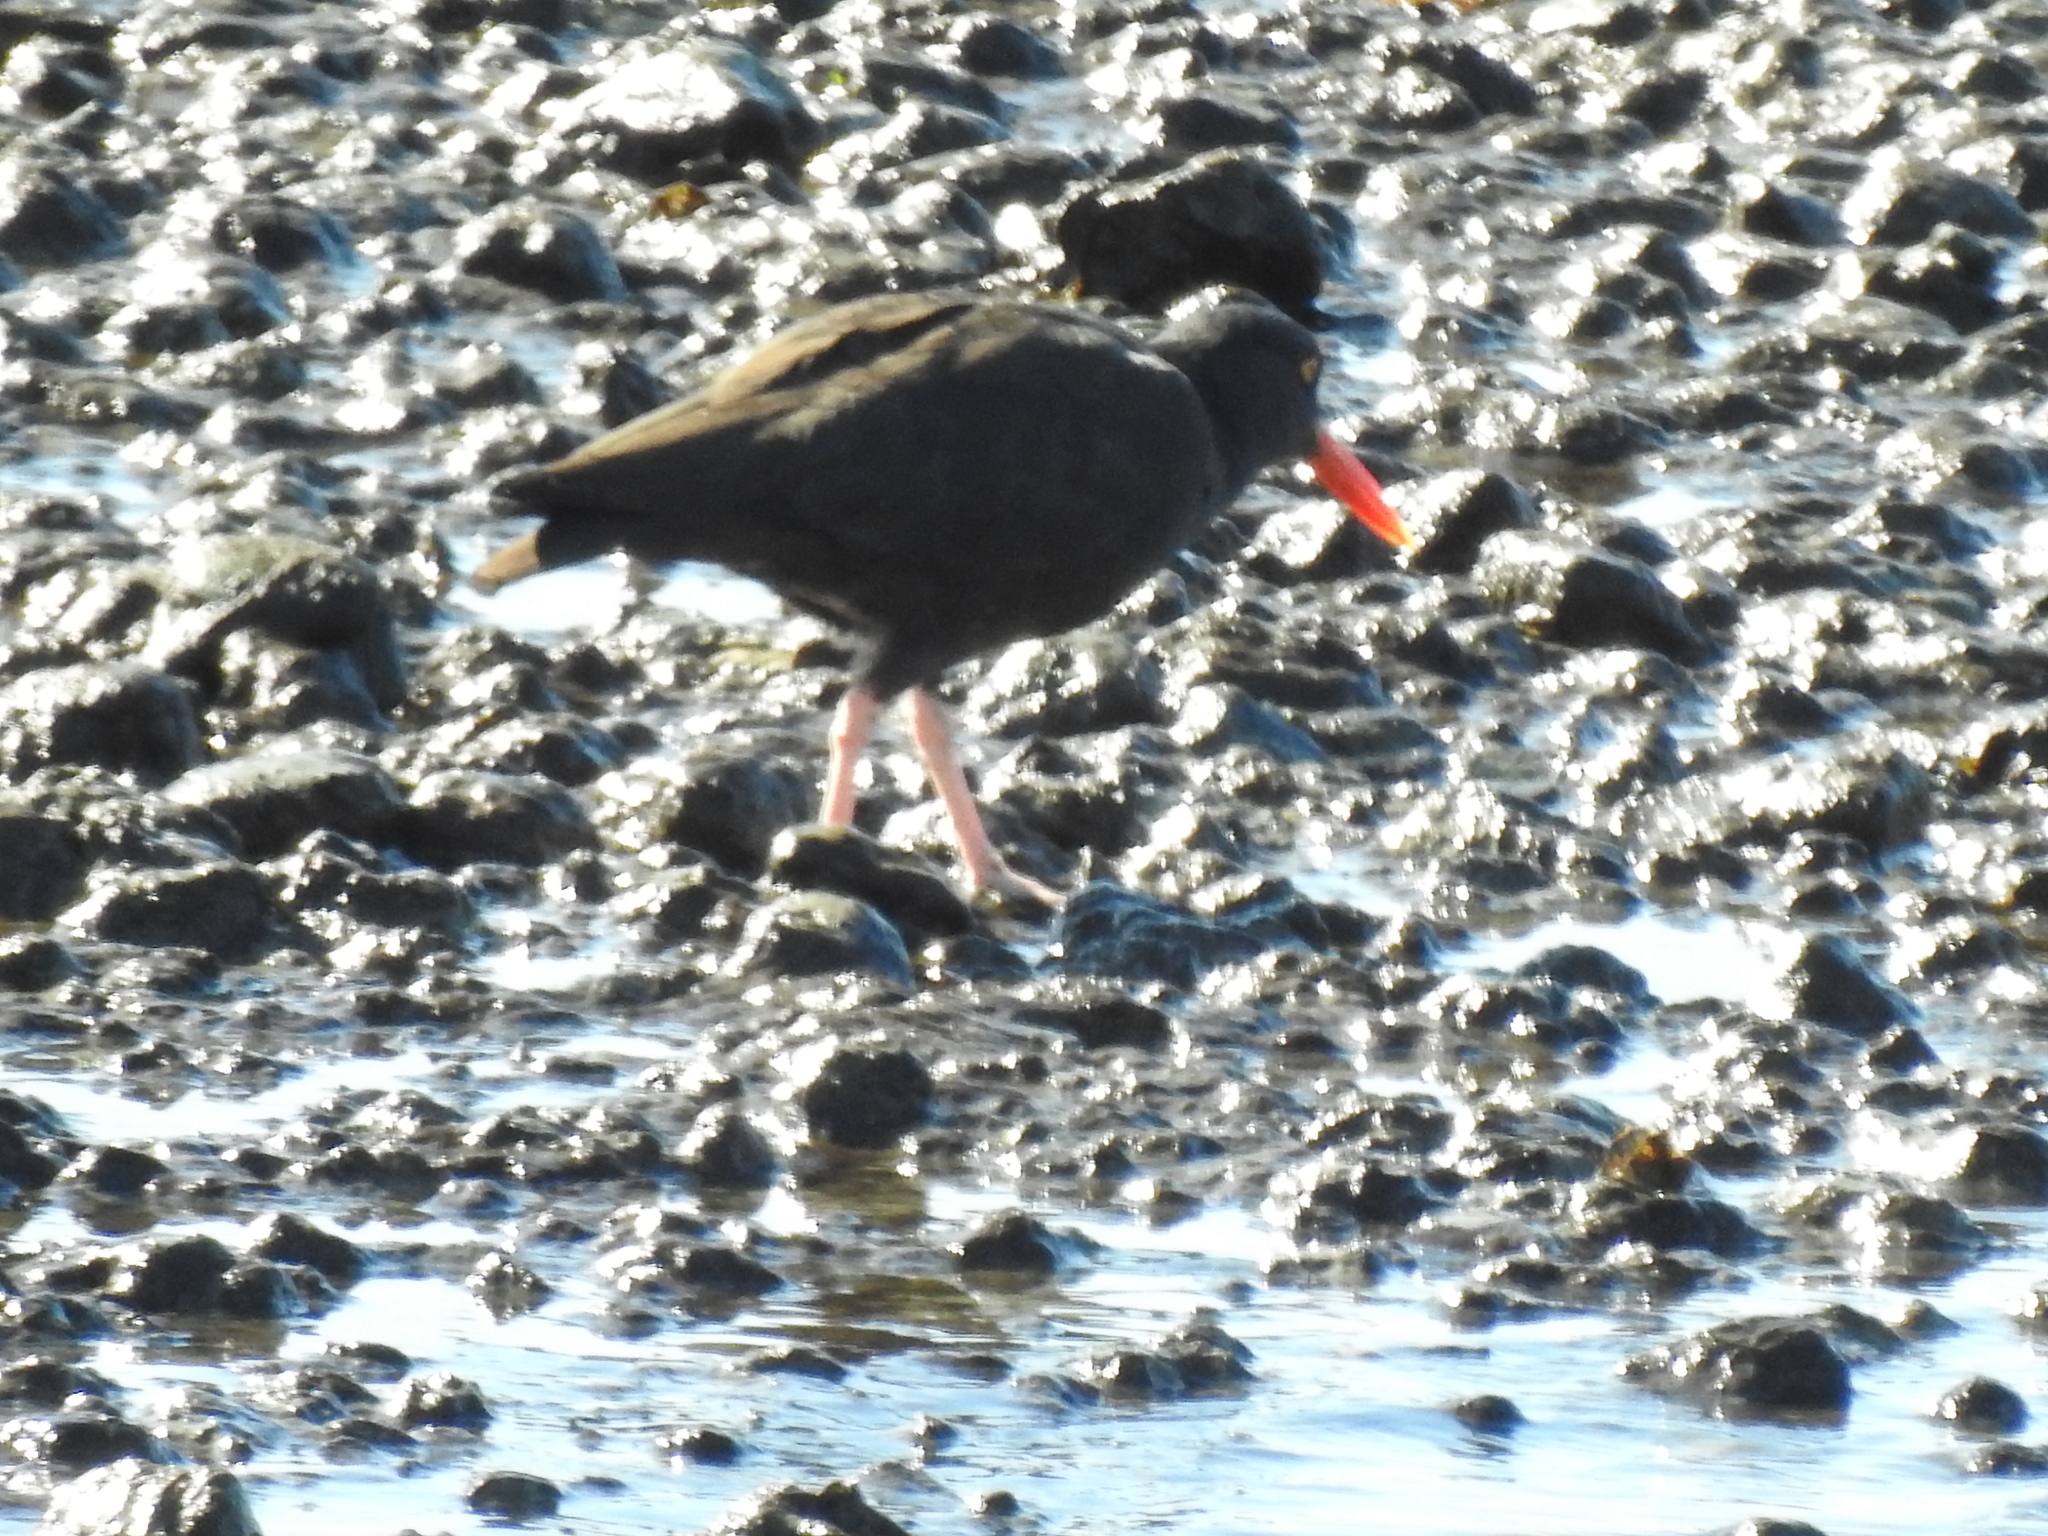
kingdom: Animalia
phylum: Chordata
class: Aves
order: Charadriiformes
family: Haematopodidae
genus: Haematopus
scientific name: Haematopus bachmani
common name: Black oystercatcher
